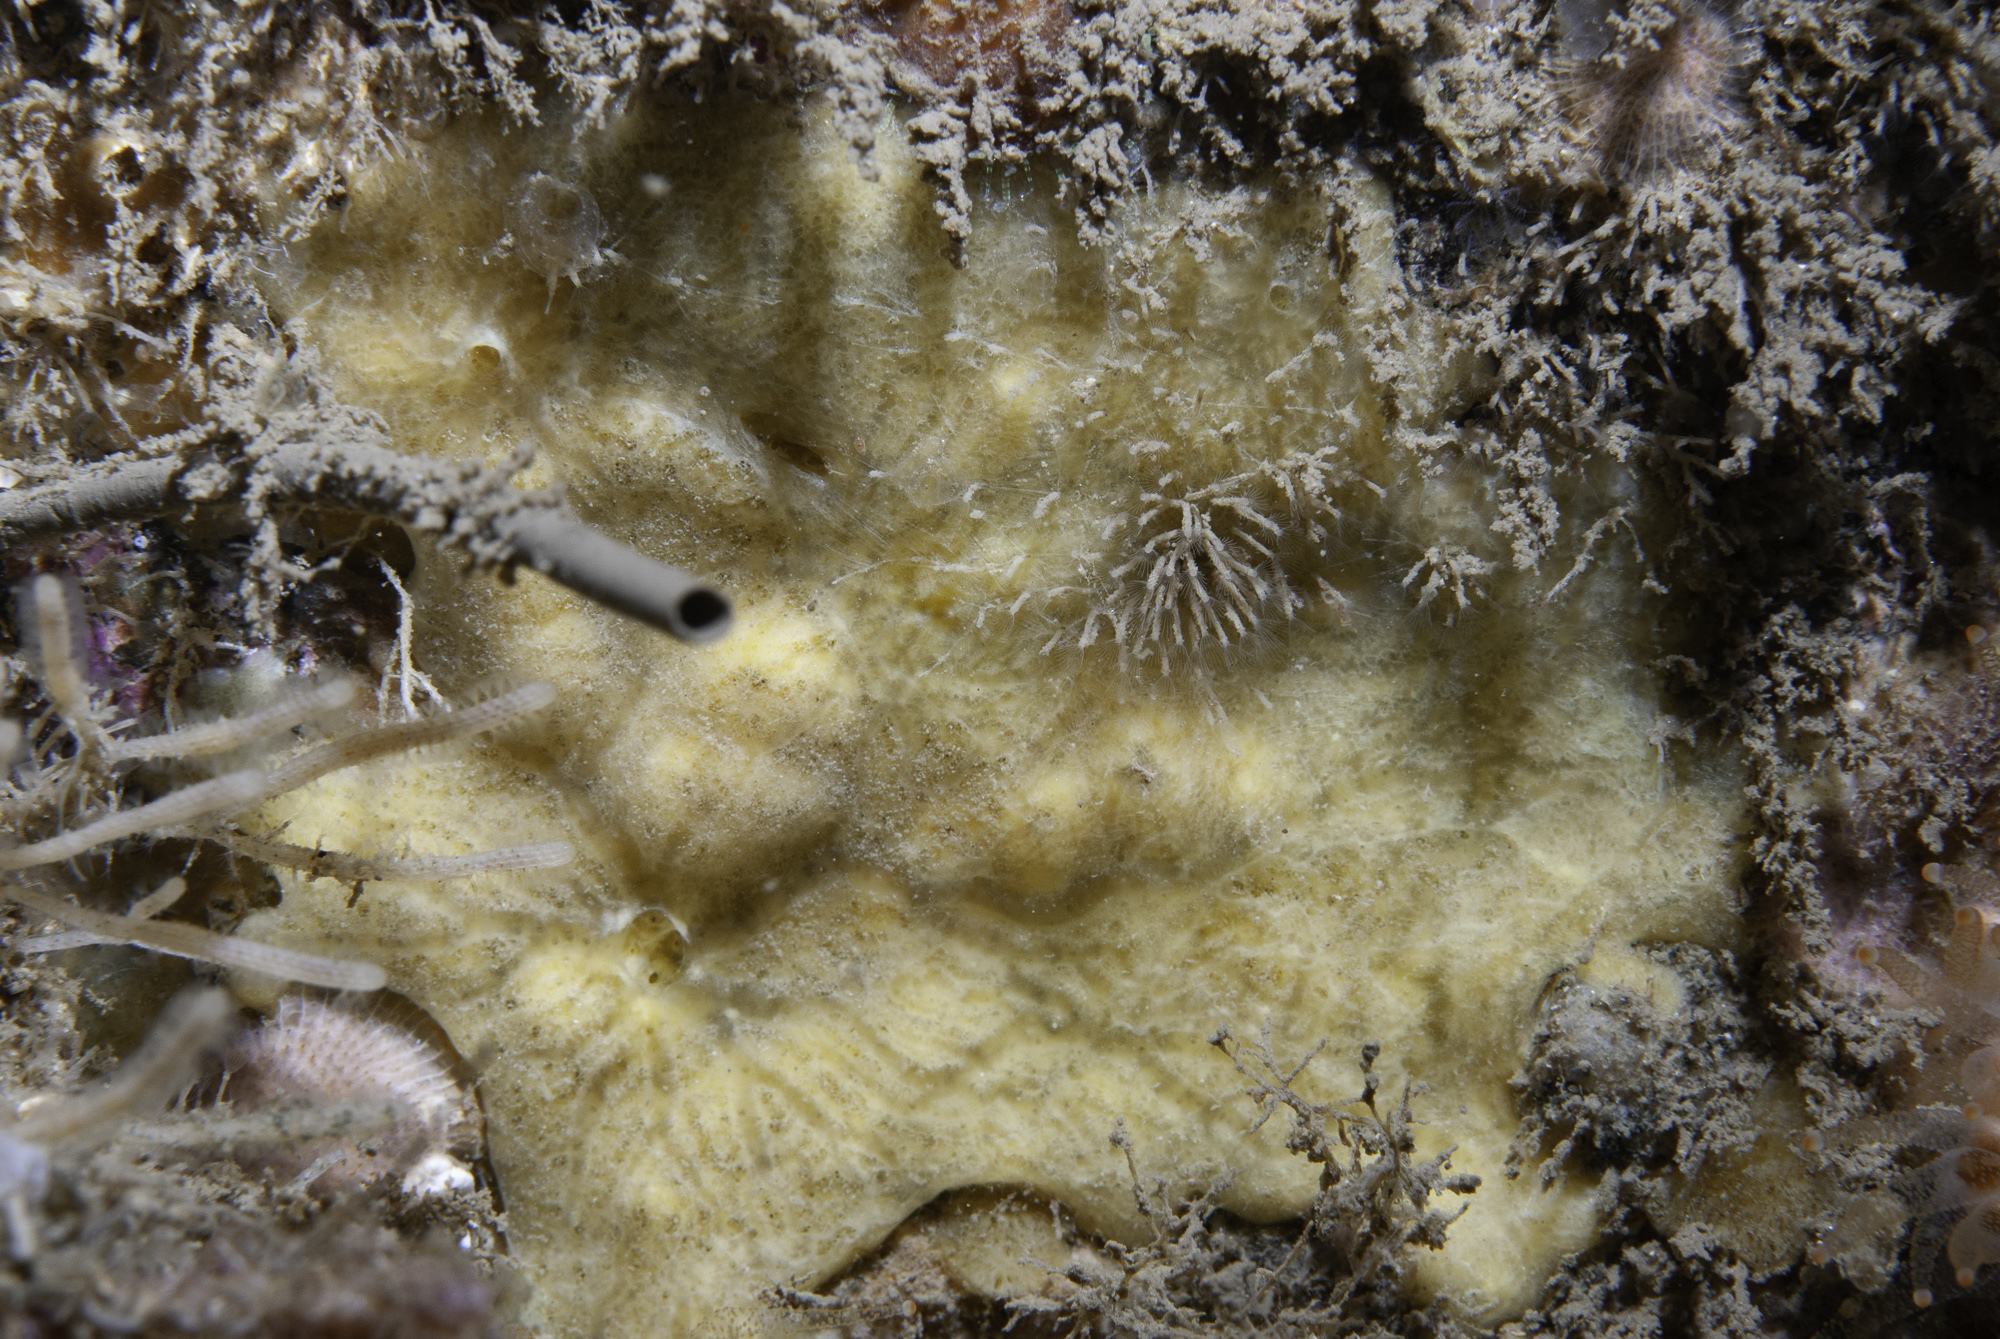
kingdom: Animalia
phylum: Porifera
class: Demospongiae
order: Poecilosclerida
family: Myxillidae
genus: Plocamiancora
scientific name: Plocamiancora arndti
